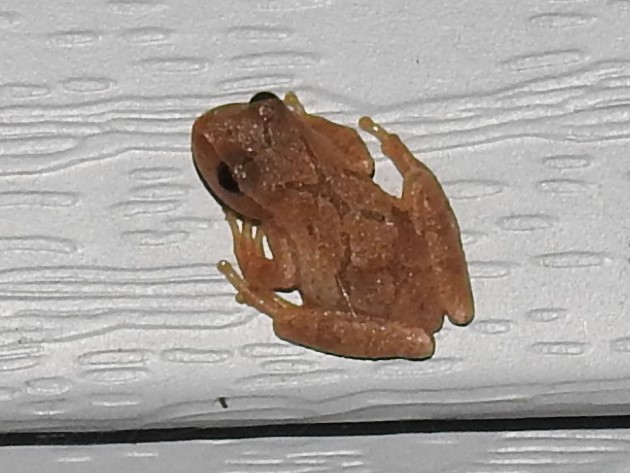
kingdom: Animalia
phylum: Chordata
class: Amphibia
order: Anura
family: Hylidae
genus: Pseudacris
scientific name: Pseudacris crucifer
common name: Spring peeper
